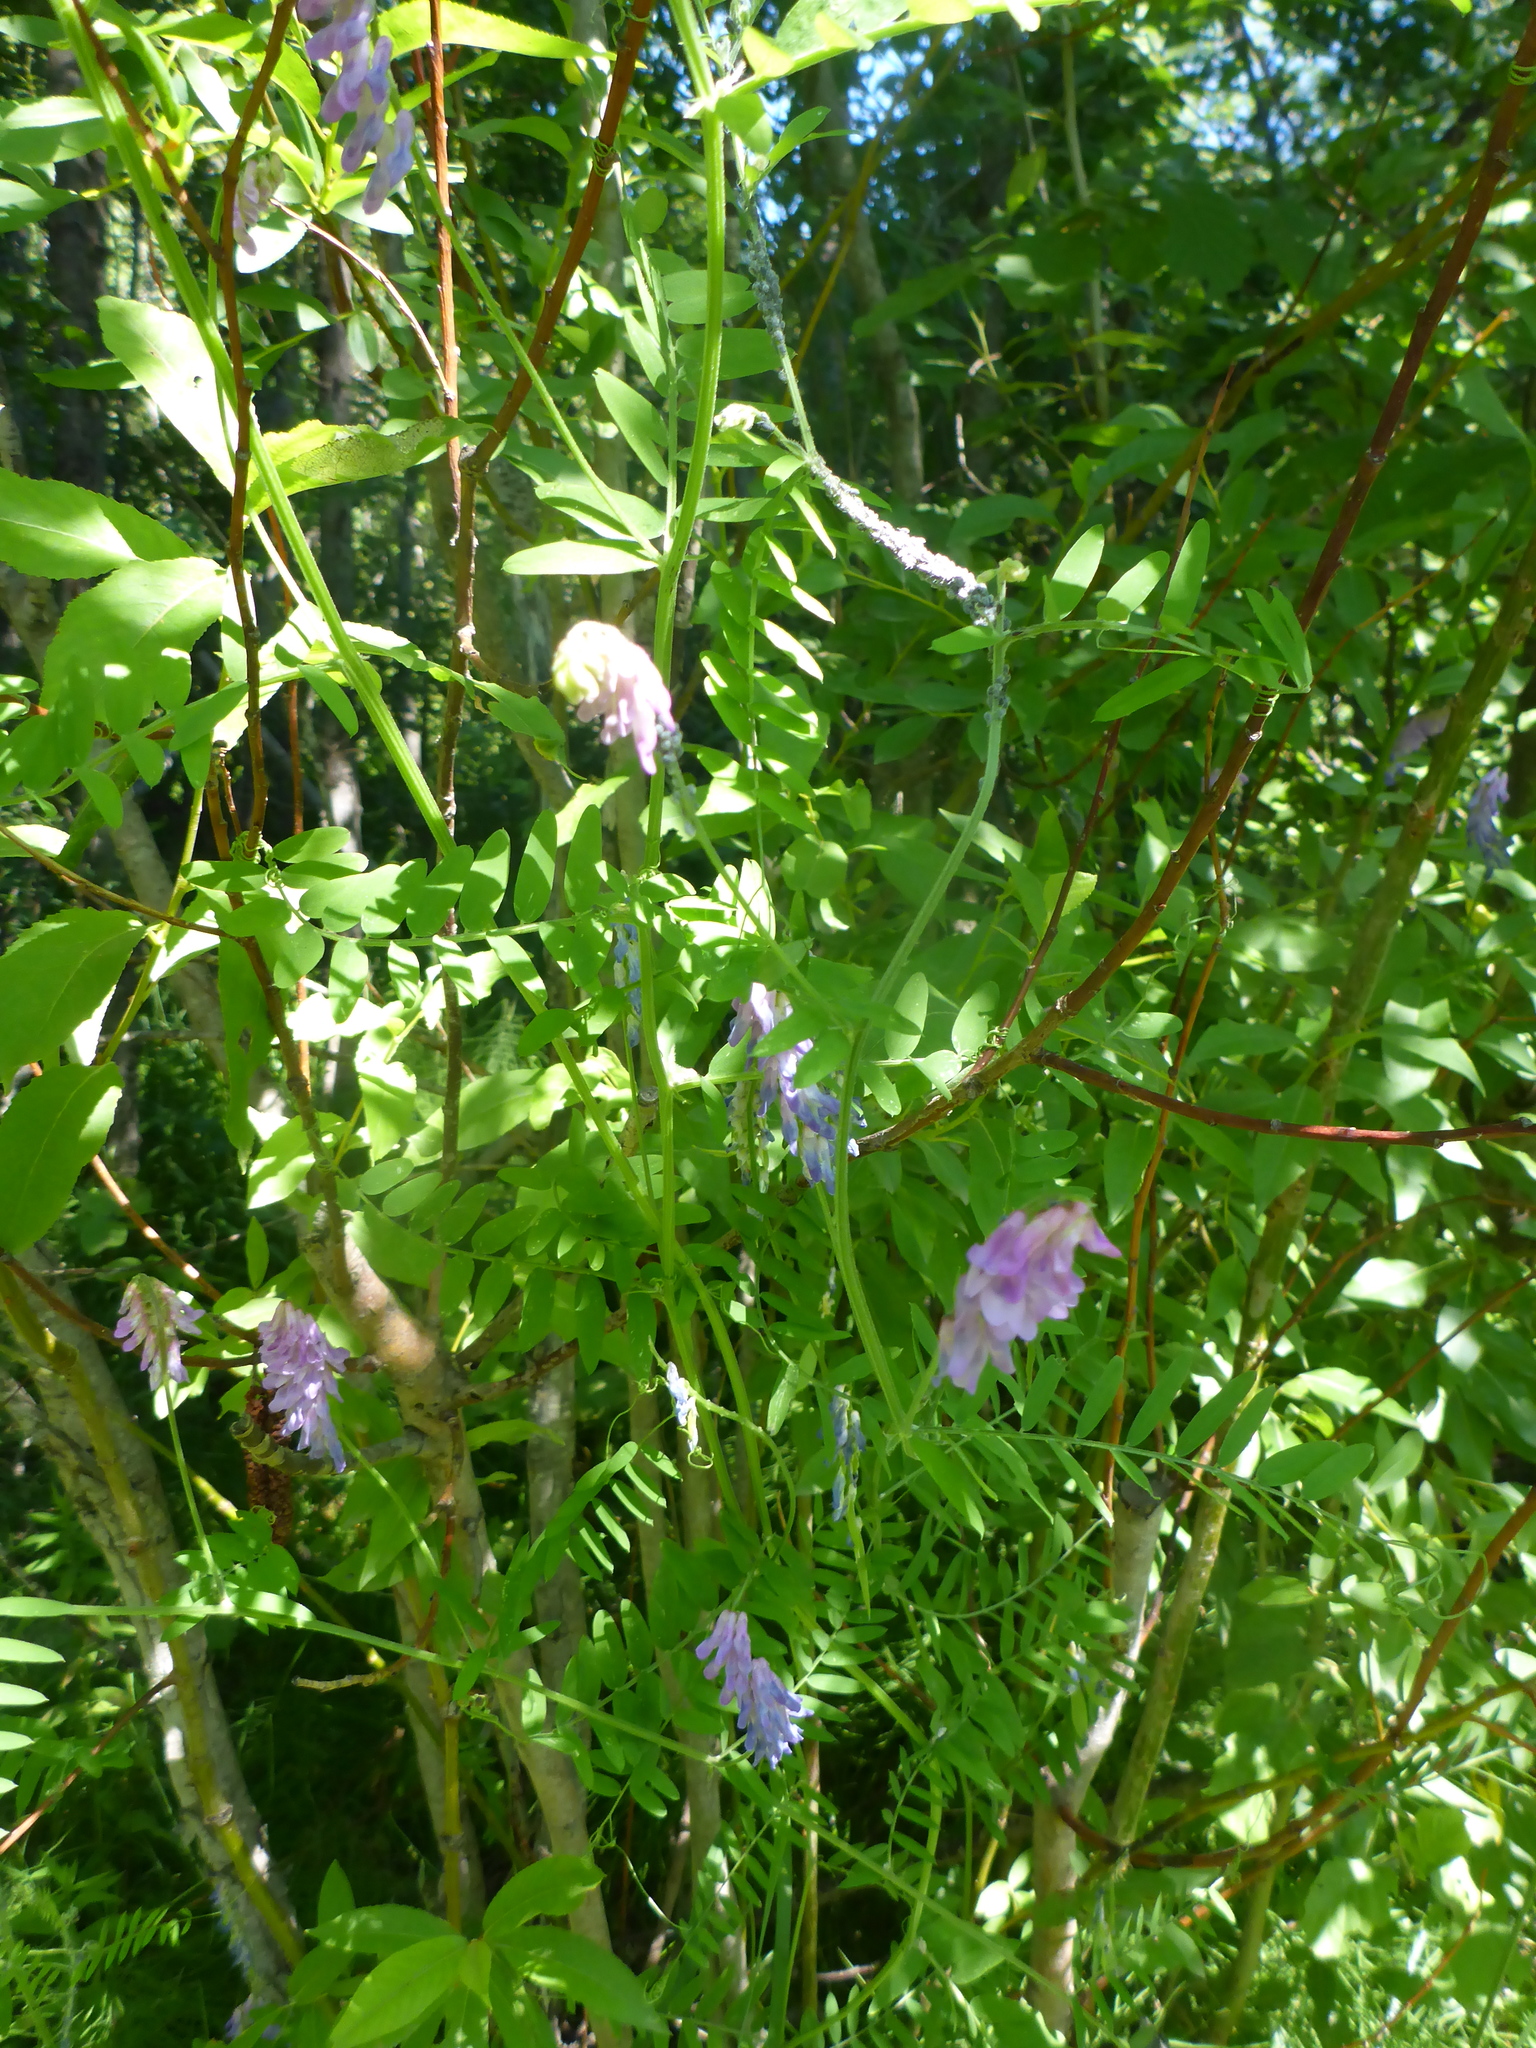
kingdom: Plantae
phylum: Tracheophyta
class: Magnoliopsida
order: Fabales
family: Fabaceae
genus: Vicia
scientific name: Vicia cracca
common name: Bird vetch
